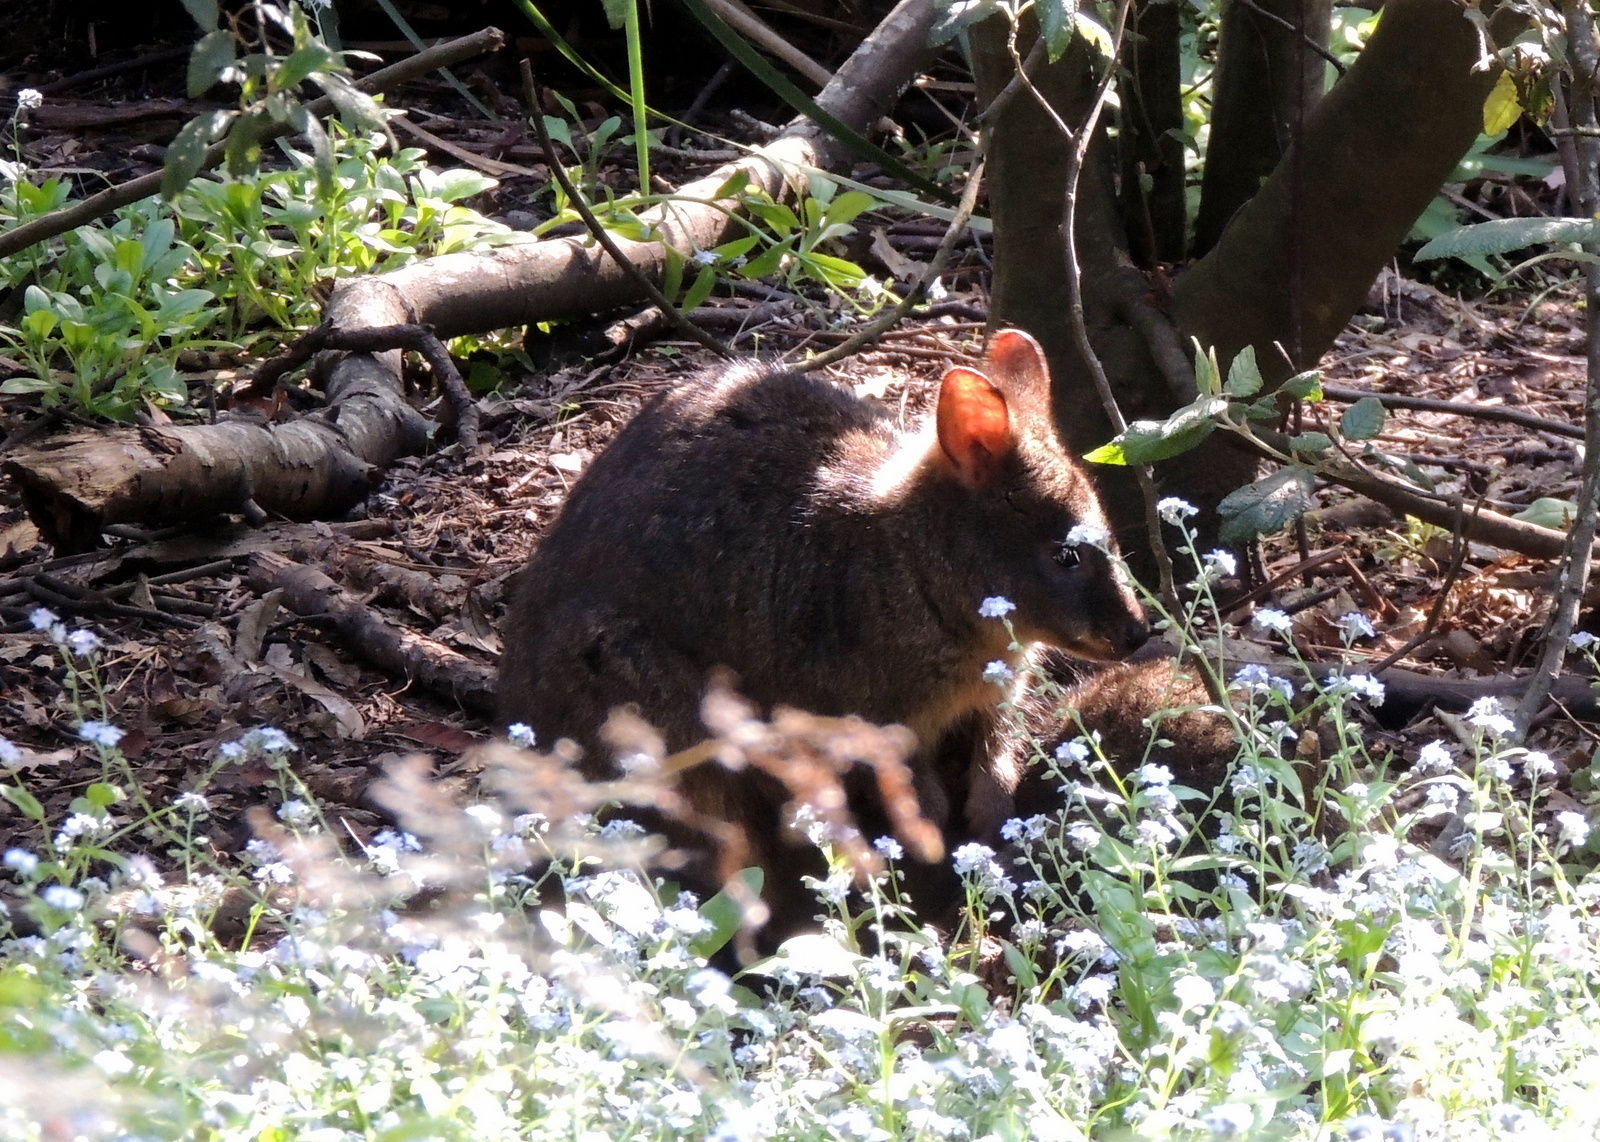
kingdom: Animalia
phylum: Chordata
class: Mammalia
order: Diprotodontia
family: Macropodidae
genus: Thylogale
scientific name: Thylogale billardierii
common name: Tasmanian pademelon
